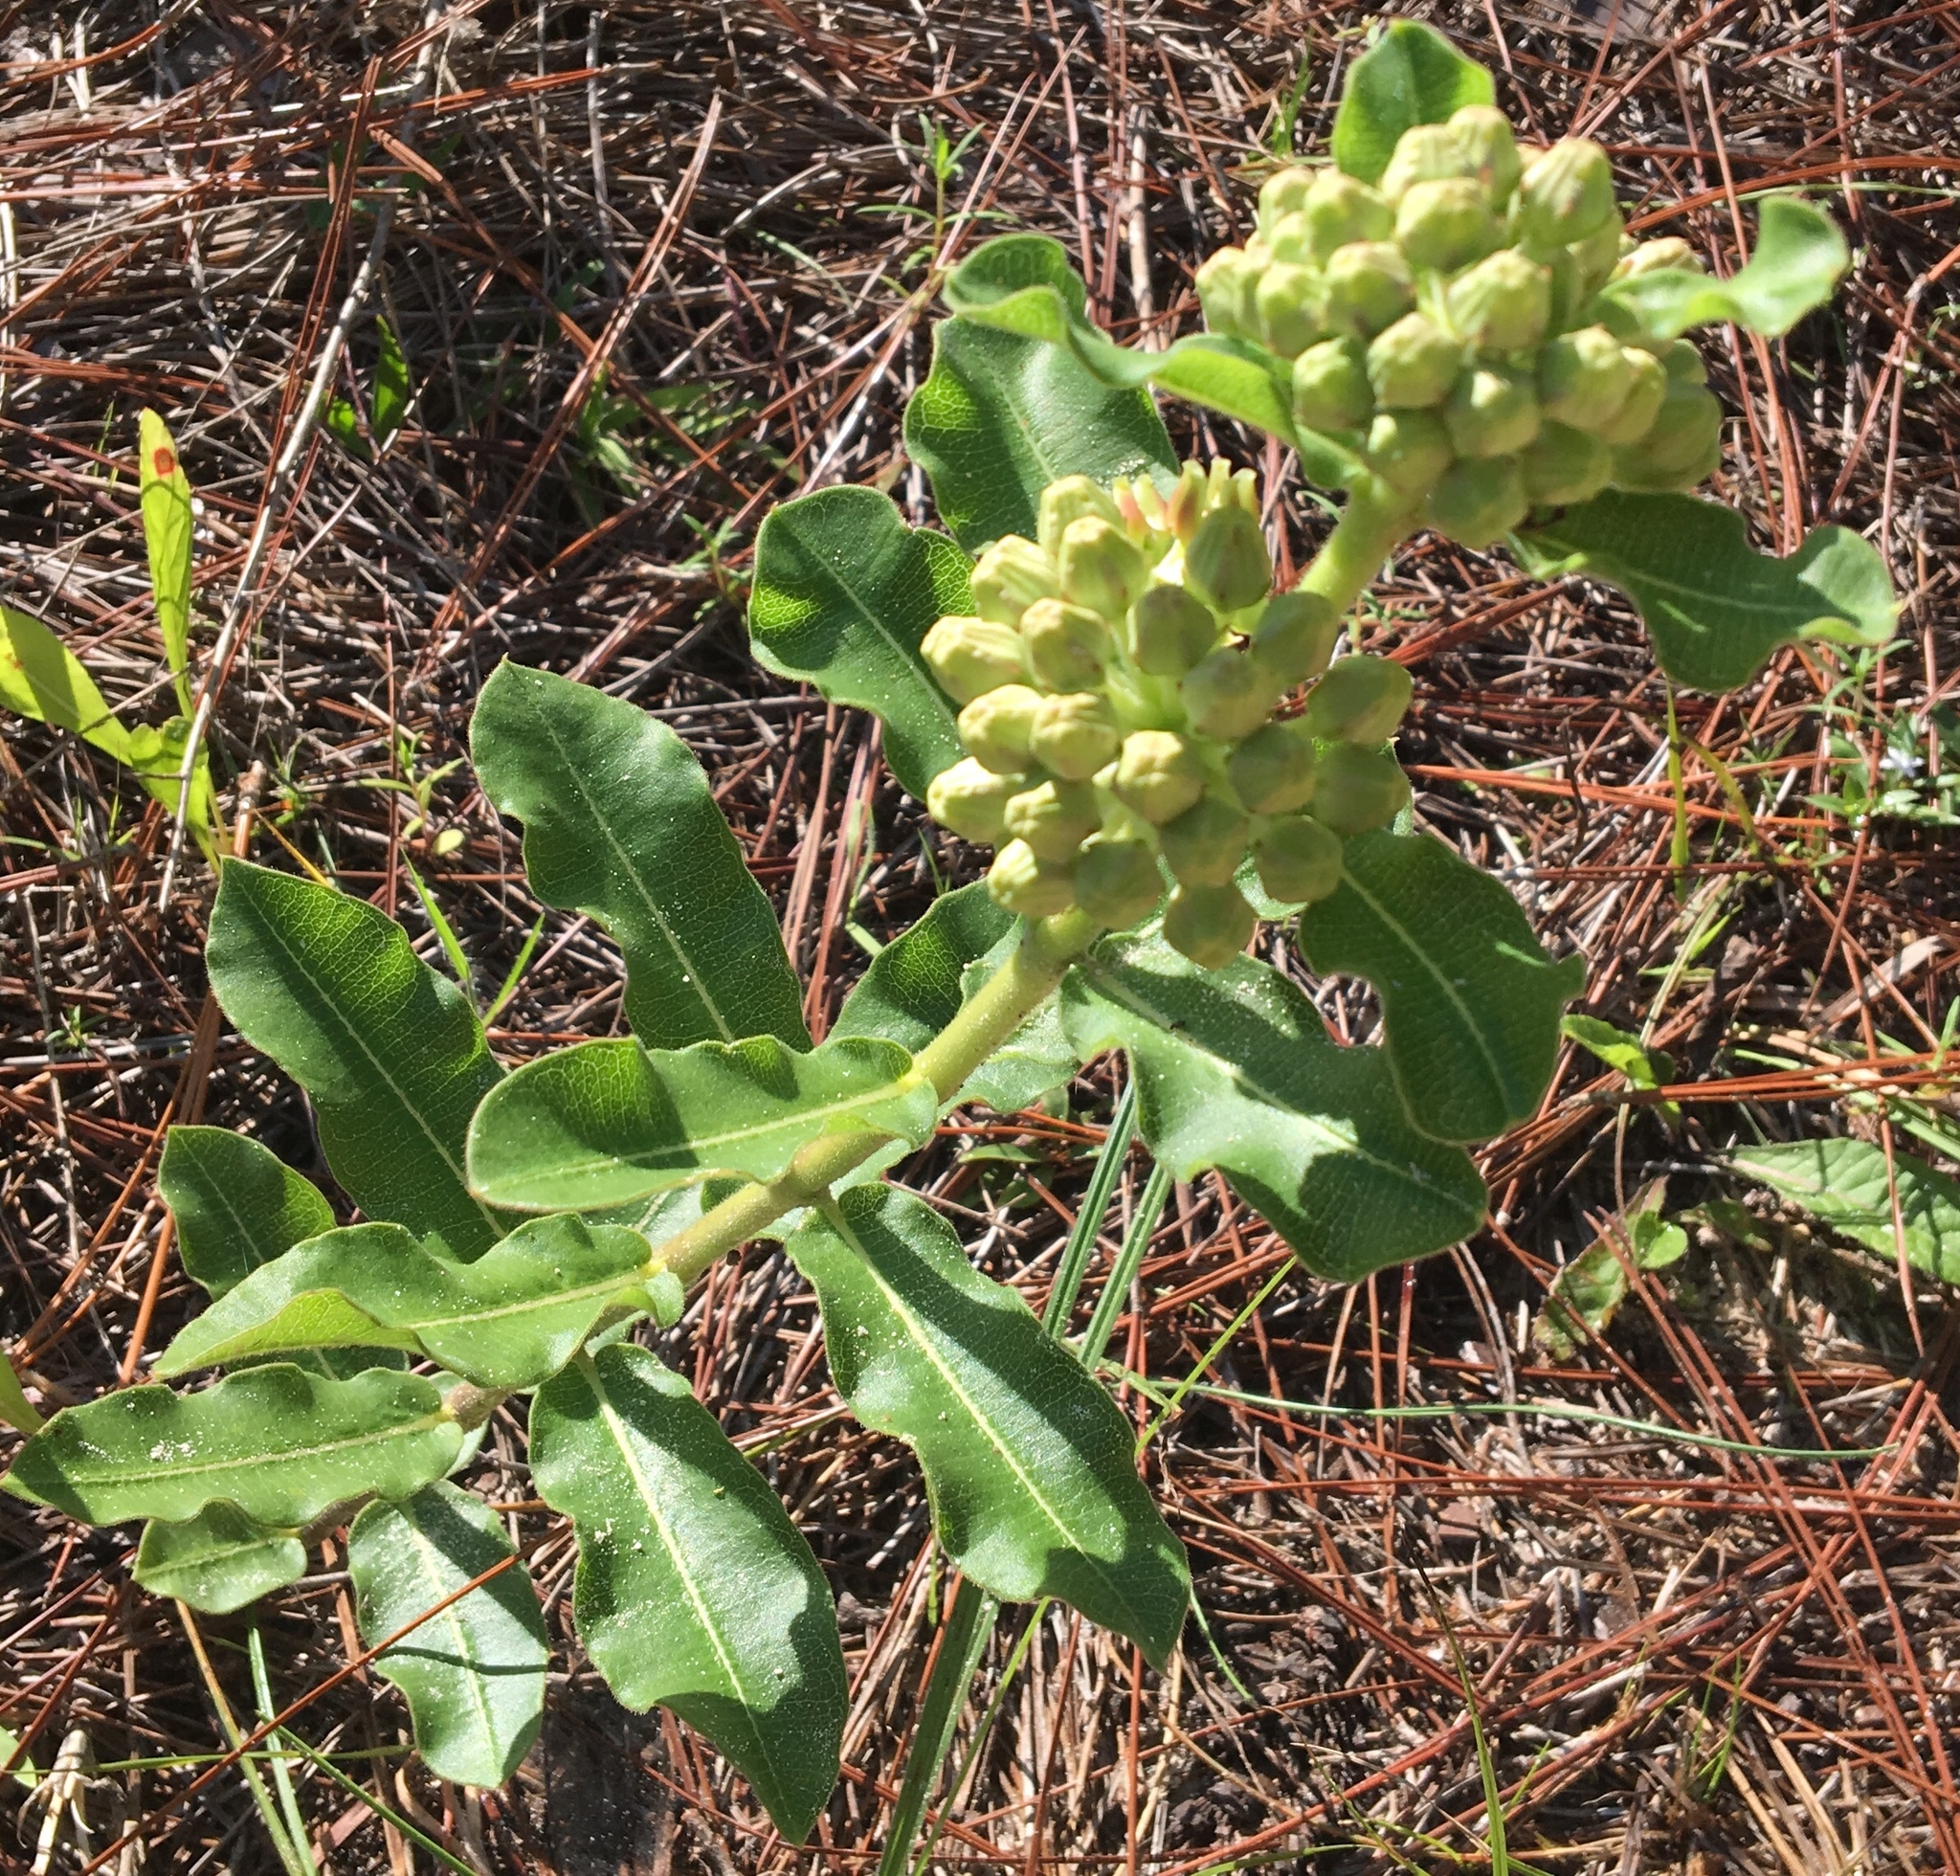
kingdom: Plantae
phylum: Tracheophyta
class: Magnoliopsida
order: Gentianales
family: Apocynaceae
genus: Asclepias
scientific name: Asclepias obovata
